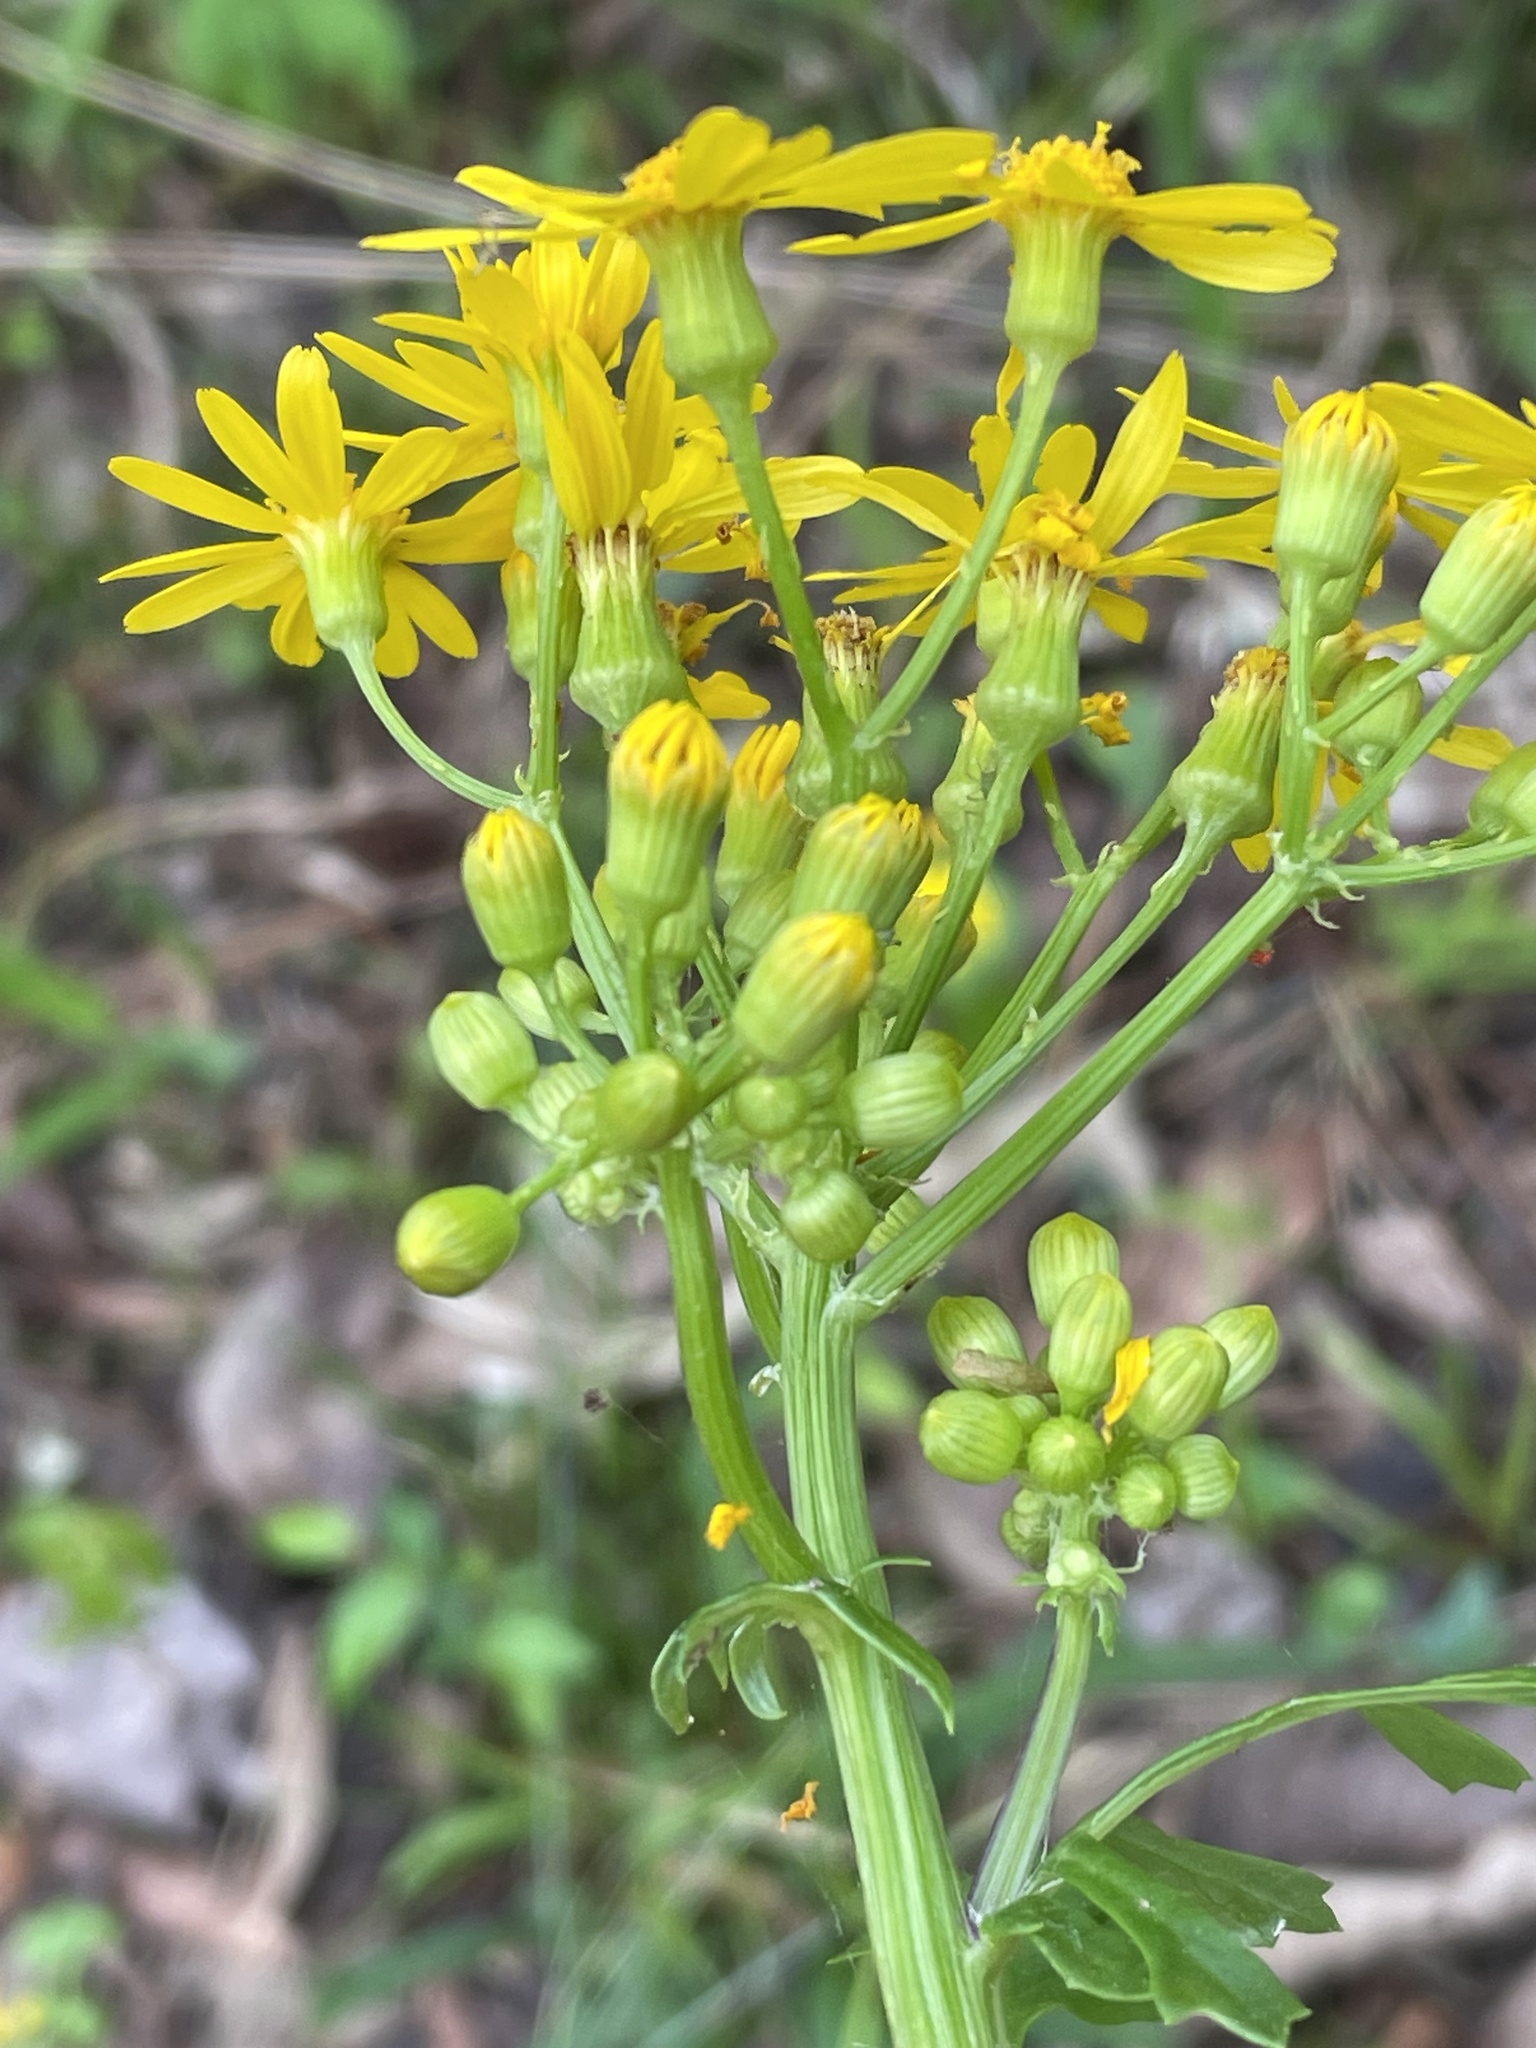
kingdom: Plantae
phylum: Tracheophyta
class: Magnoliopsida
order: Asterales
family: Asteraceae
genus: Packera
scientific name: Packera glabella
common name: Butterweed
